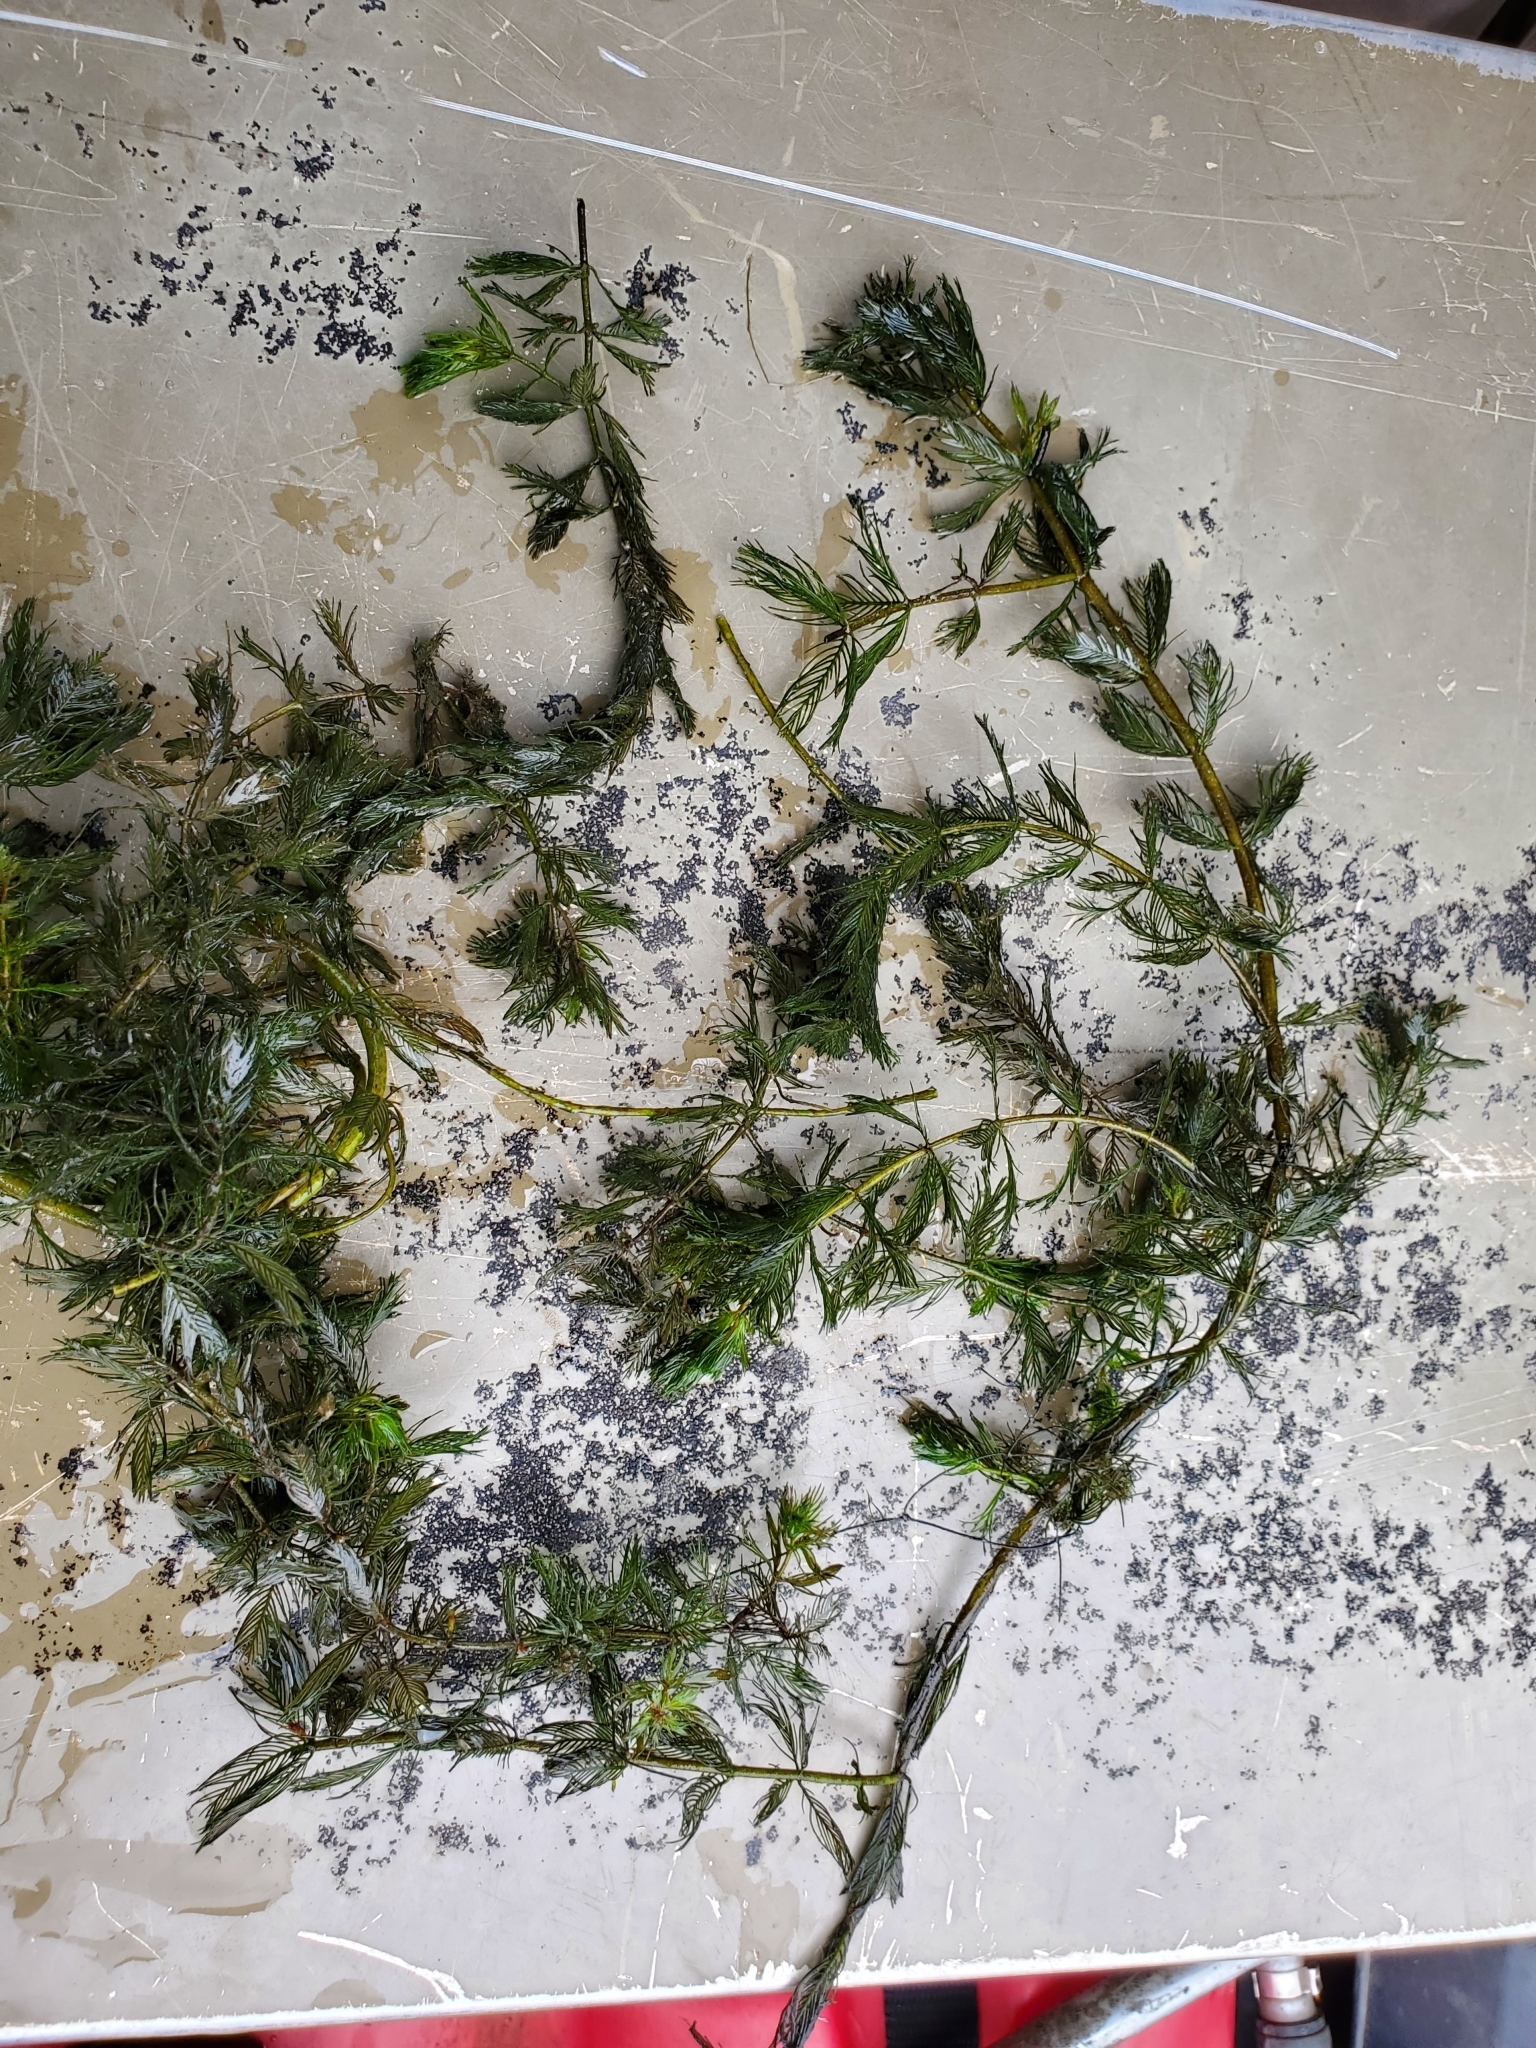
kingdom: Plantae
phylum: Tracheophyta
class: Magnoliopsida
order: Saxifragales
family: Haloragaceae
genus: Myriophyllum
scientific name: Myriophyllum spicatum
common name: Spiked water-milfoil
